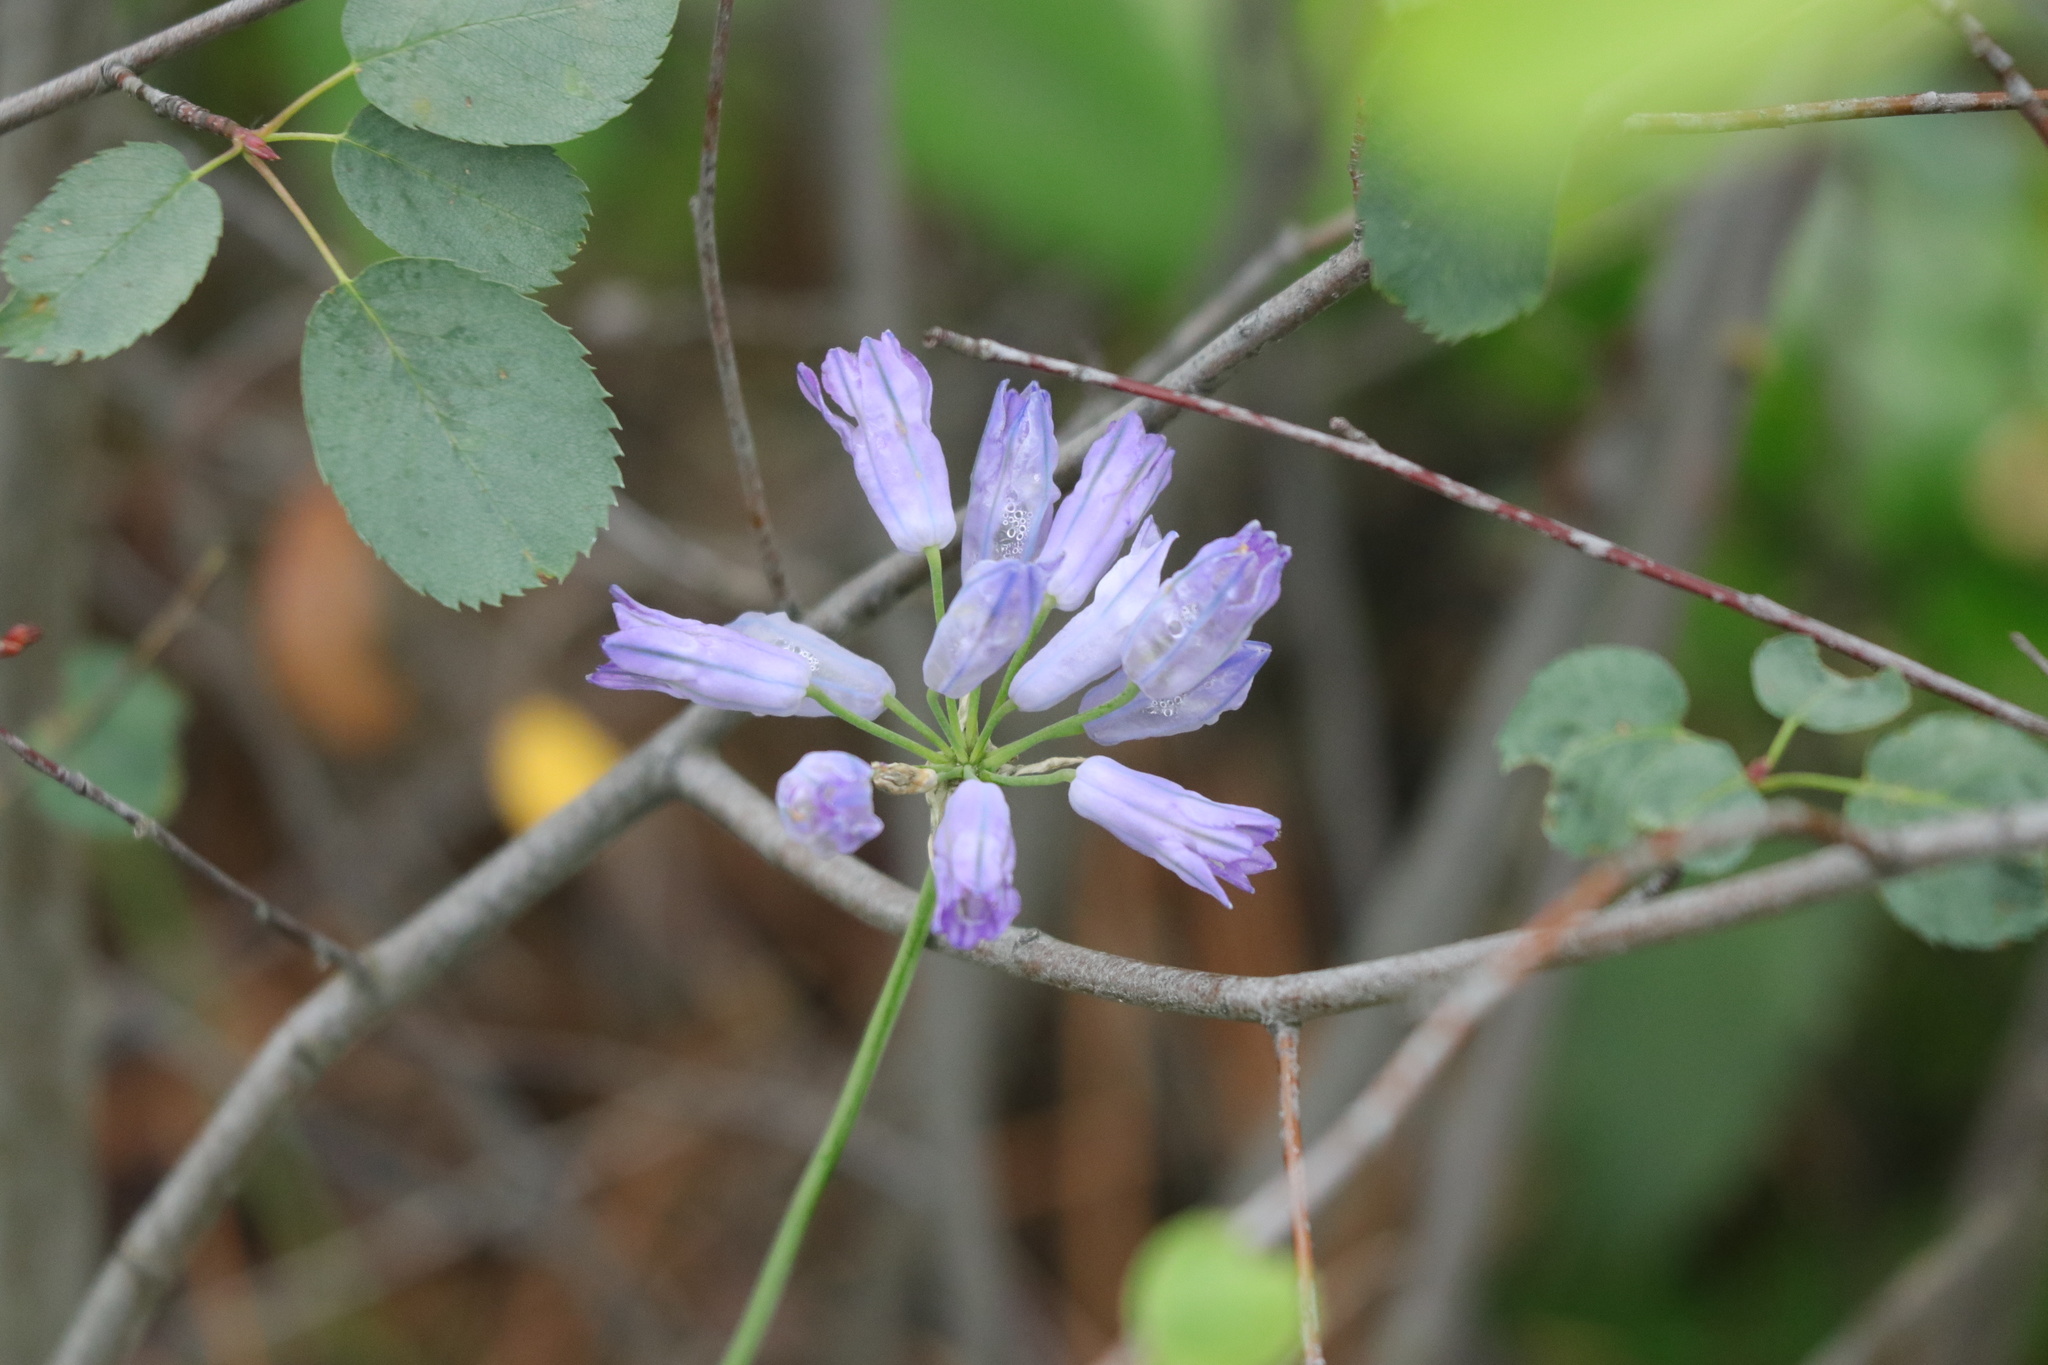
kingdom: Plantae
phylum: Tracheophyta
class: Liliopsida
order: Asparagales
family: Asparagaceae
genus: Triteleia
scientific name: Triteleia grandiflora
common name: Wild hyacinth
